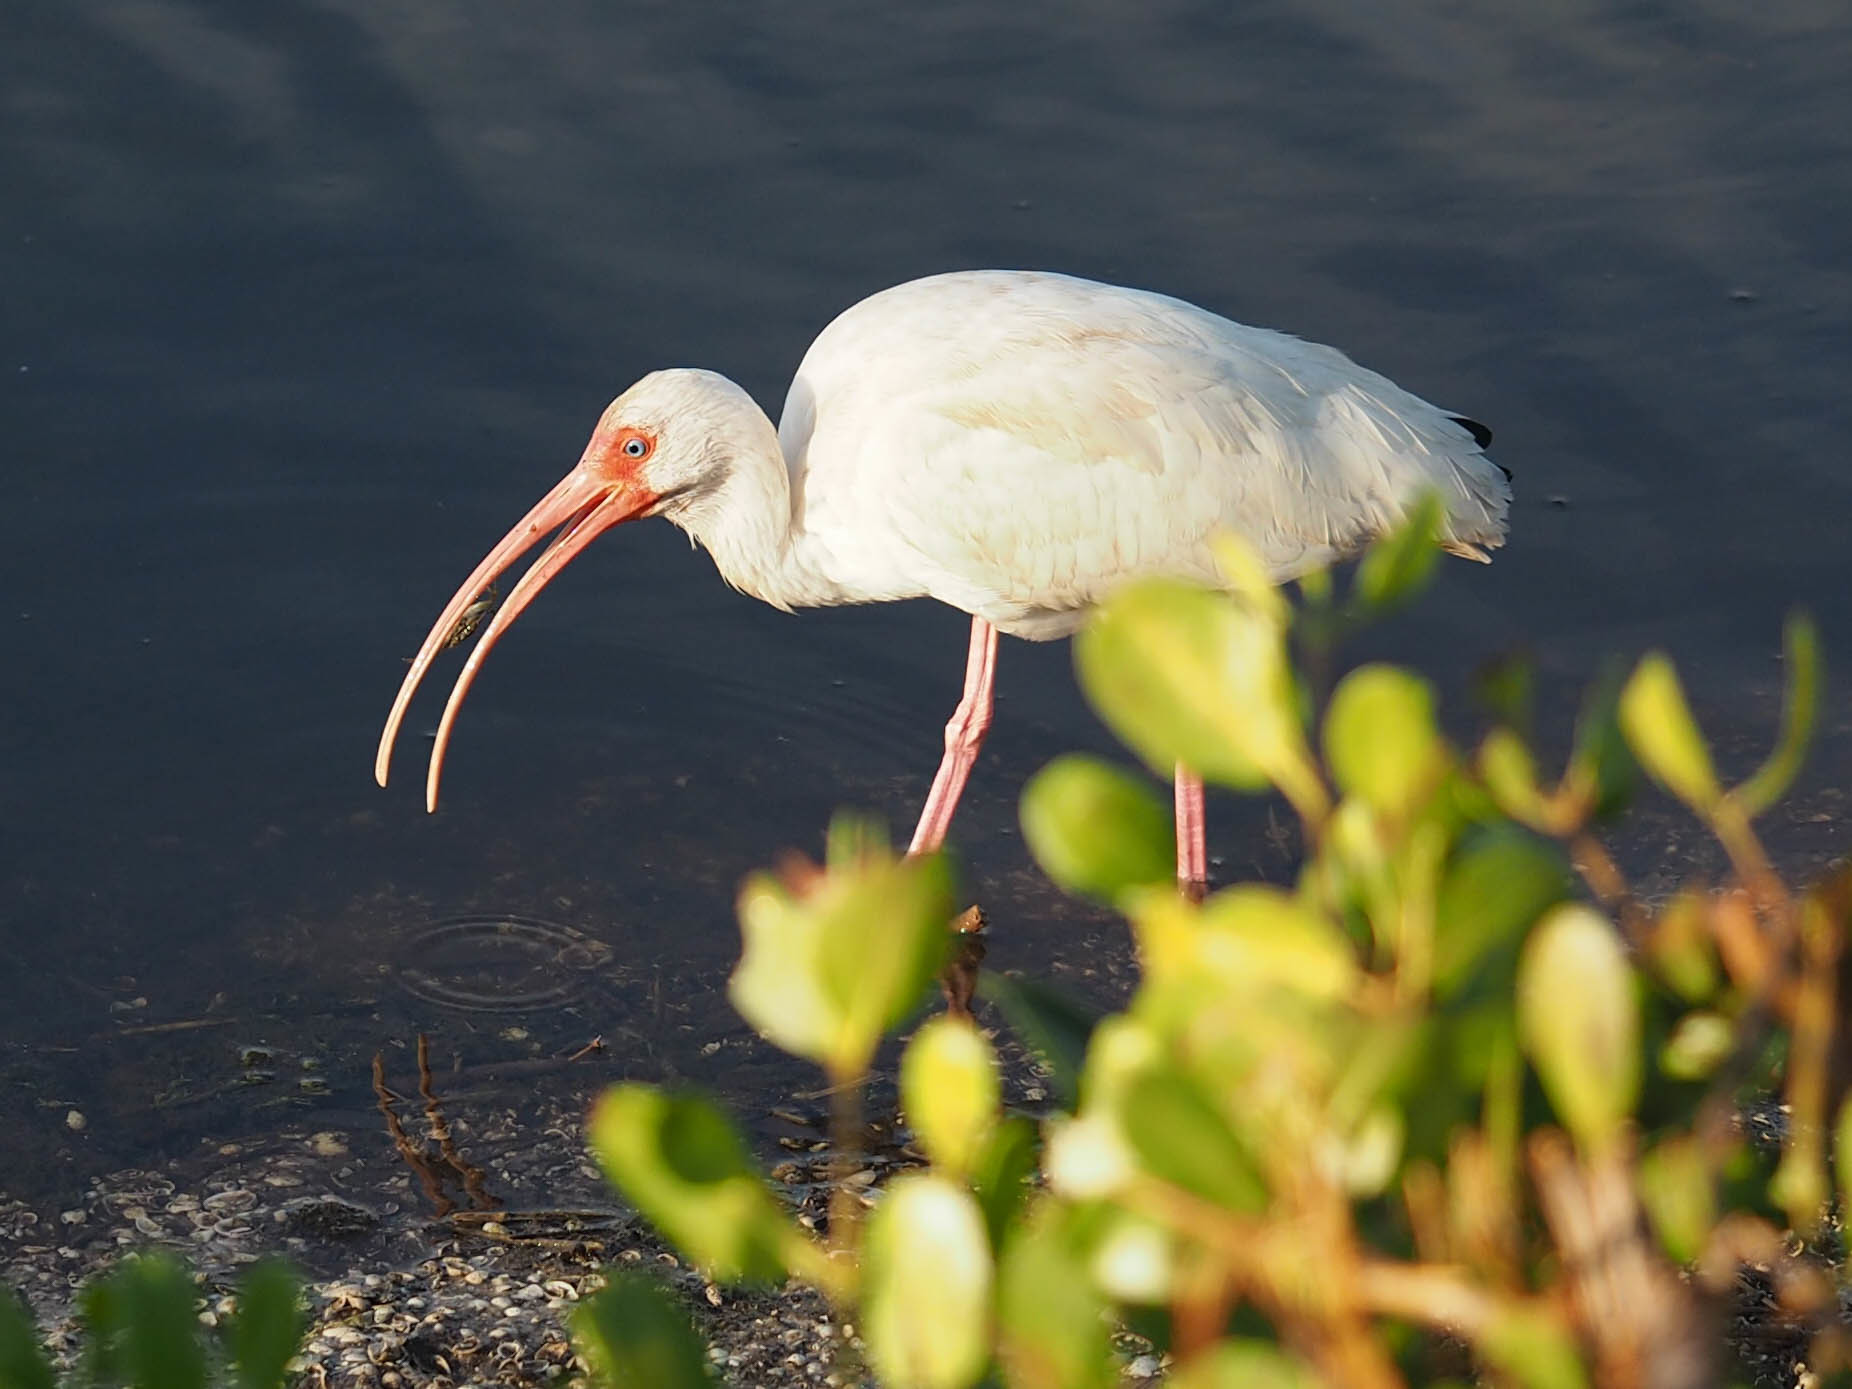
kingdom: Animalia
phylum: Chordata
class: Aves
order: Pelecaniformes
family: Threskiornithidae
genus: Eudocimus
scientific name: Eudocimus albus
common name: White ibis
